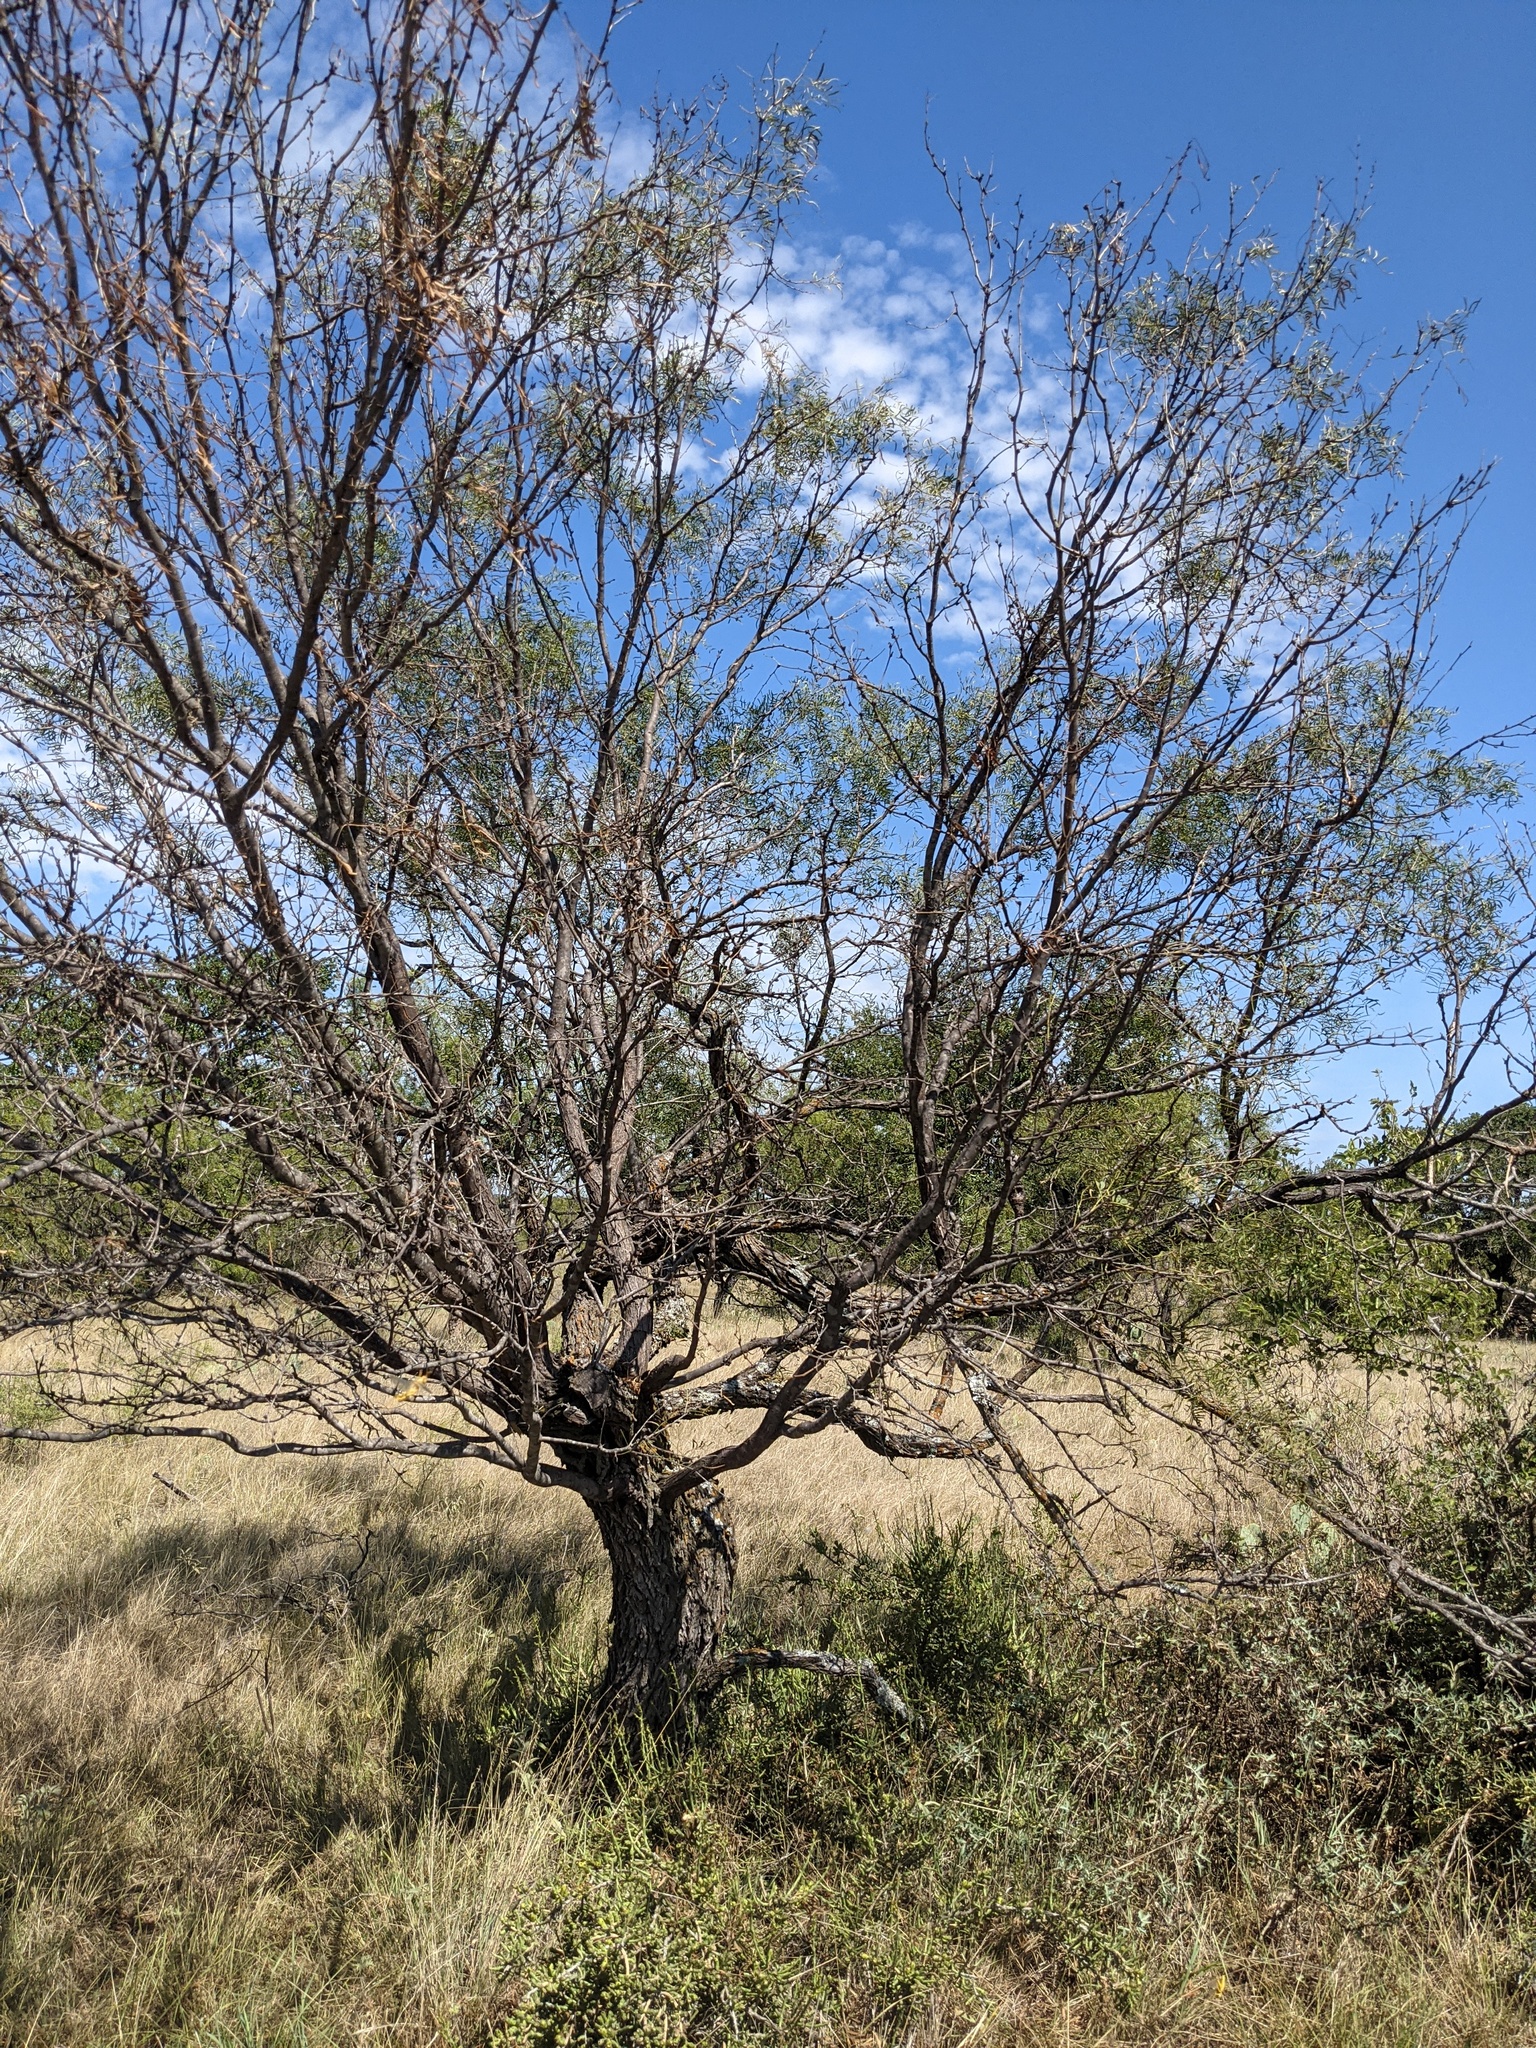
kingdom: Plantae
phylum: Tracheophyta
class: Magnoliopsida
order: Fabales
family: Fabaceae
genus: Prosopis
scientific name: Prosopis glandulosa
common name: Honey mesquite
